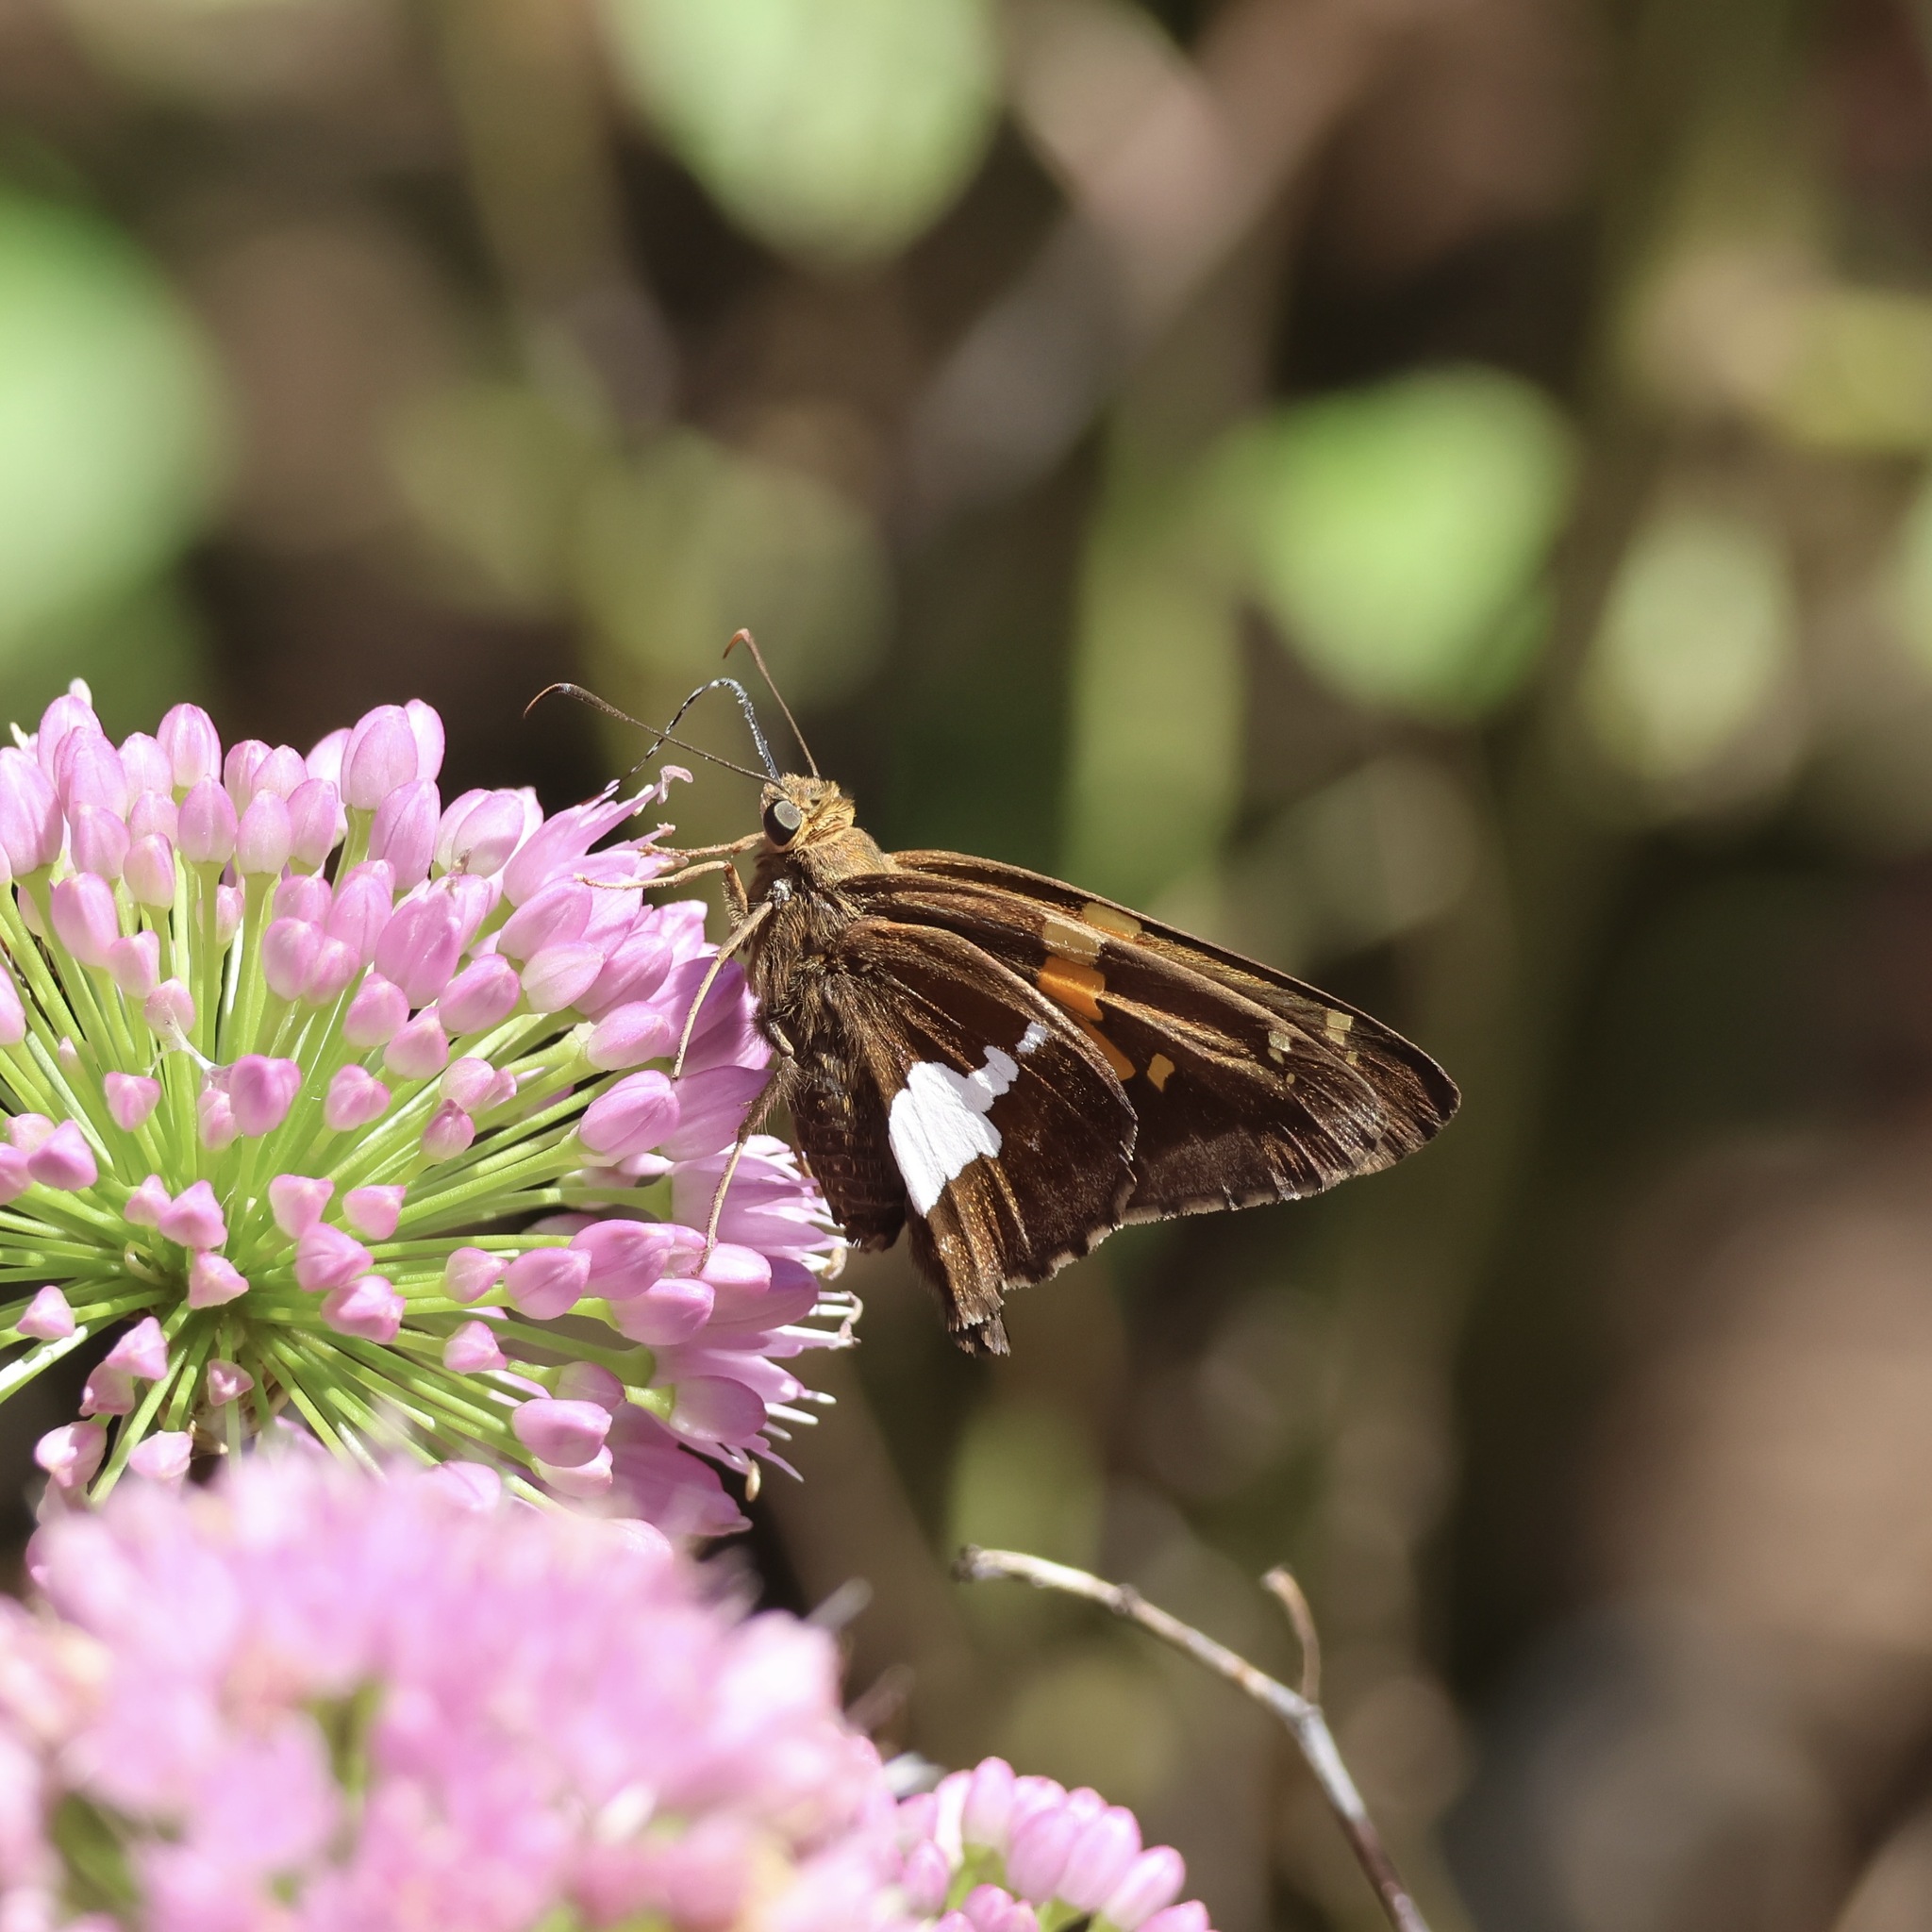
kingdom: Animalia
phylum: Arthropoda
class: Insecta
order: Lepidoptera
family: Hesperiidae
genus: Epargyreus
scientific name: Epargyreus clarus
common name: Silver-spotted skipper
